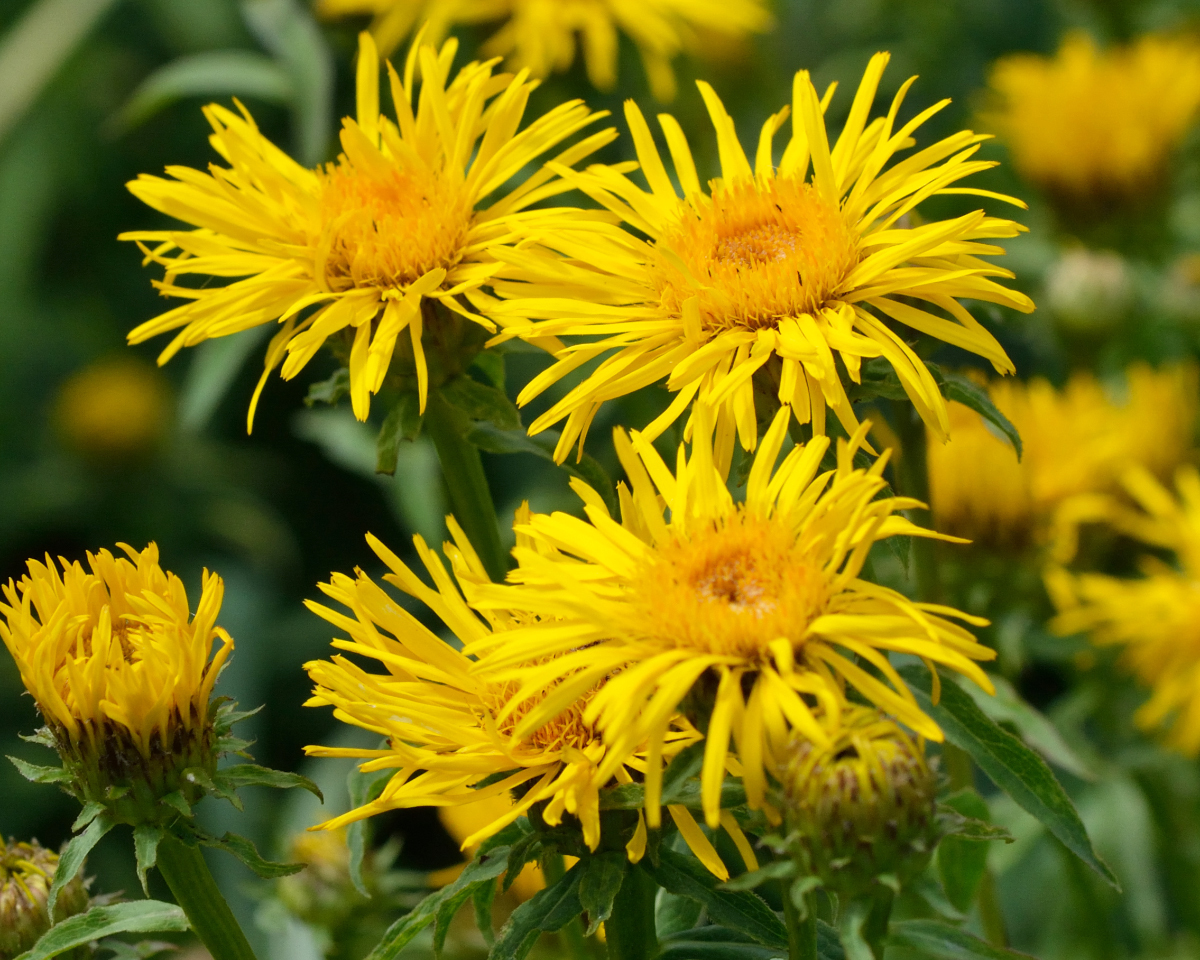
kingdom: Plantae
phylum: Tracheophyta
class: Magnoliopsida
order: Asterales
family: Asteraceae
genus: Pentanema
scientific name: Pentanema salicinum
